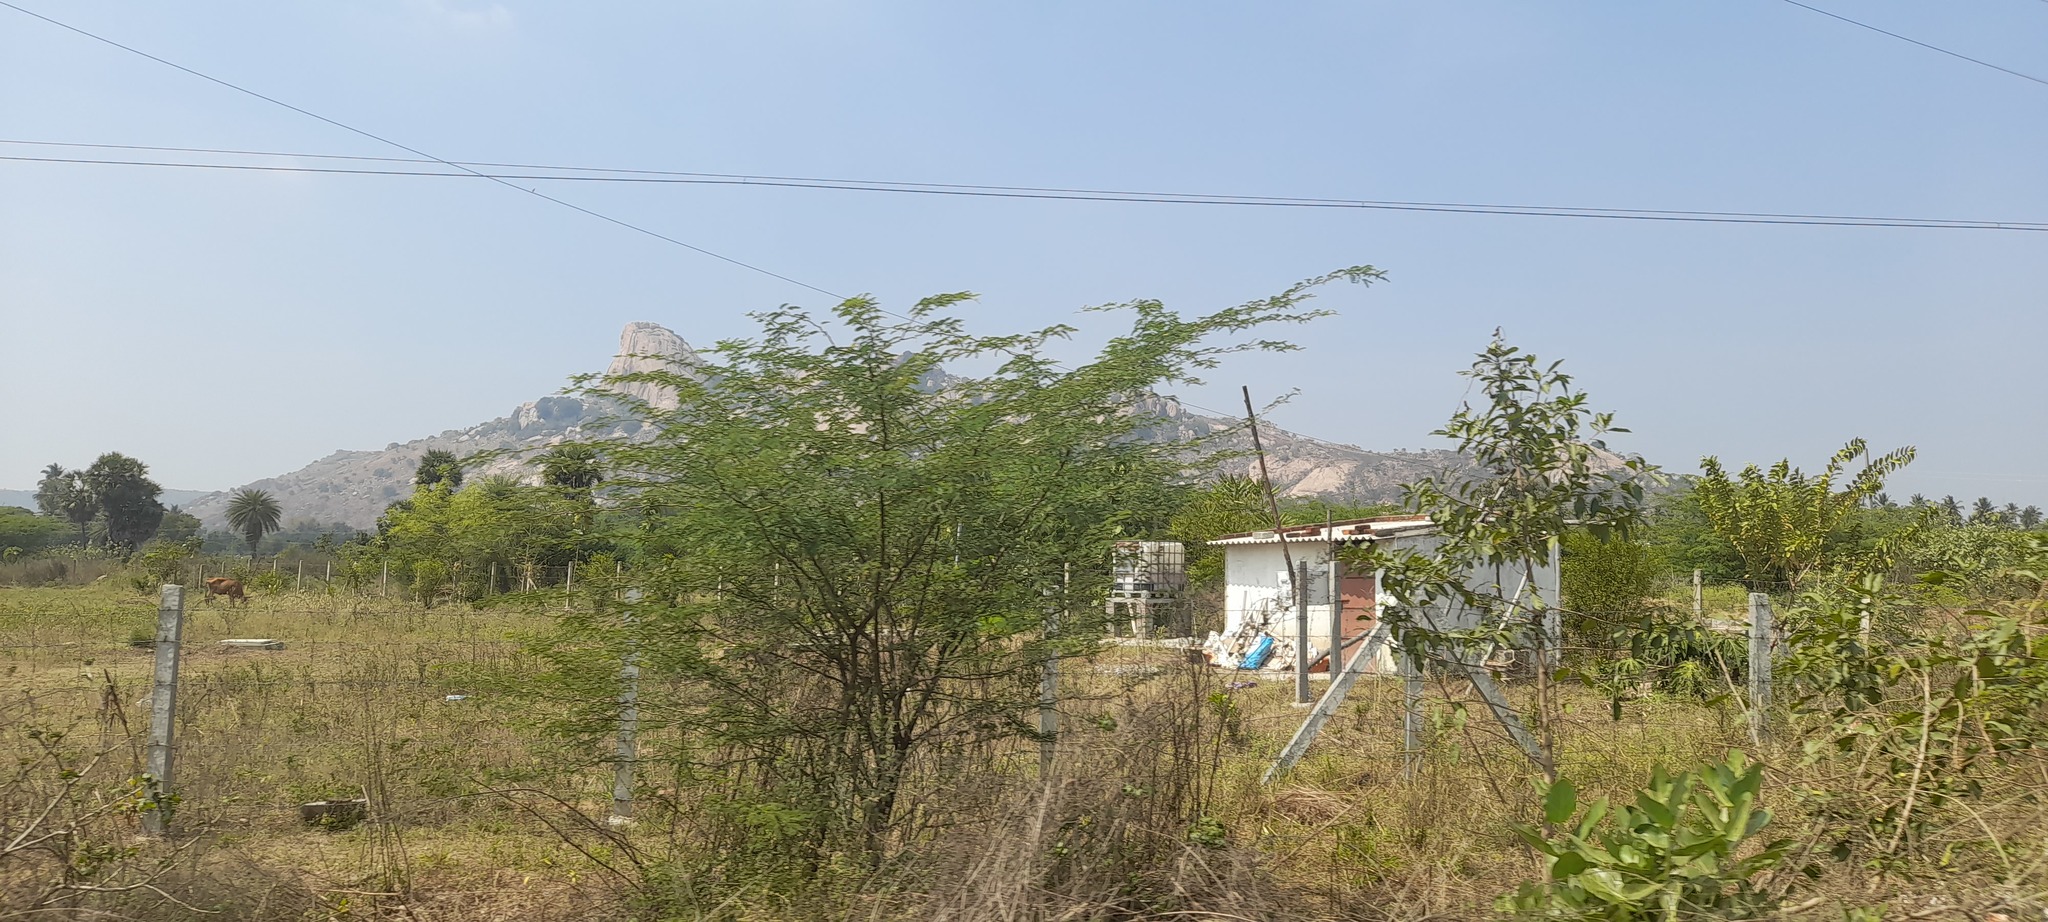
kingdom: Plantae
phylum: Tracheophyta
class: Magnoliopsida
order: Fabales
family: Fabaceae
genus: Prosopis
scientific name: Prosopis juliflora
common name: Mesquite
